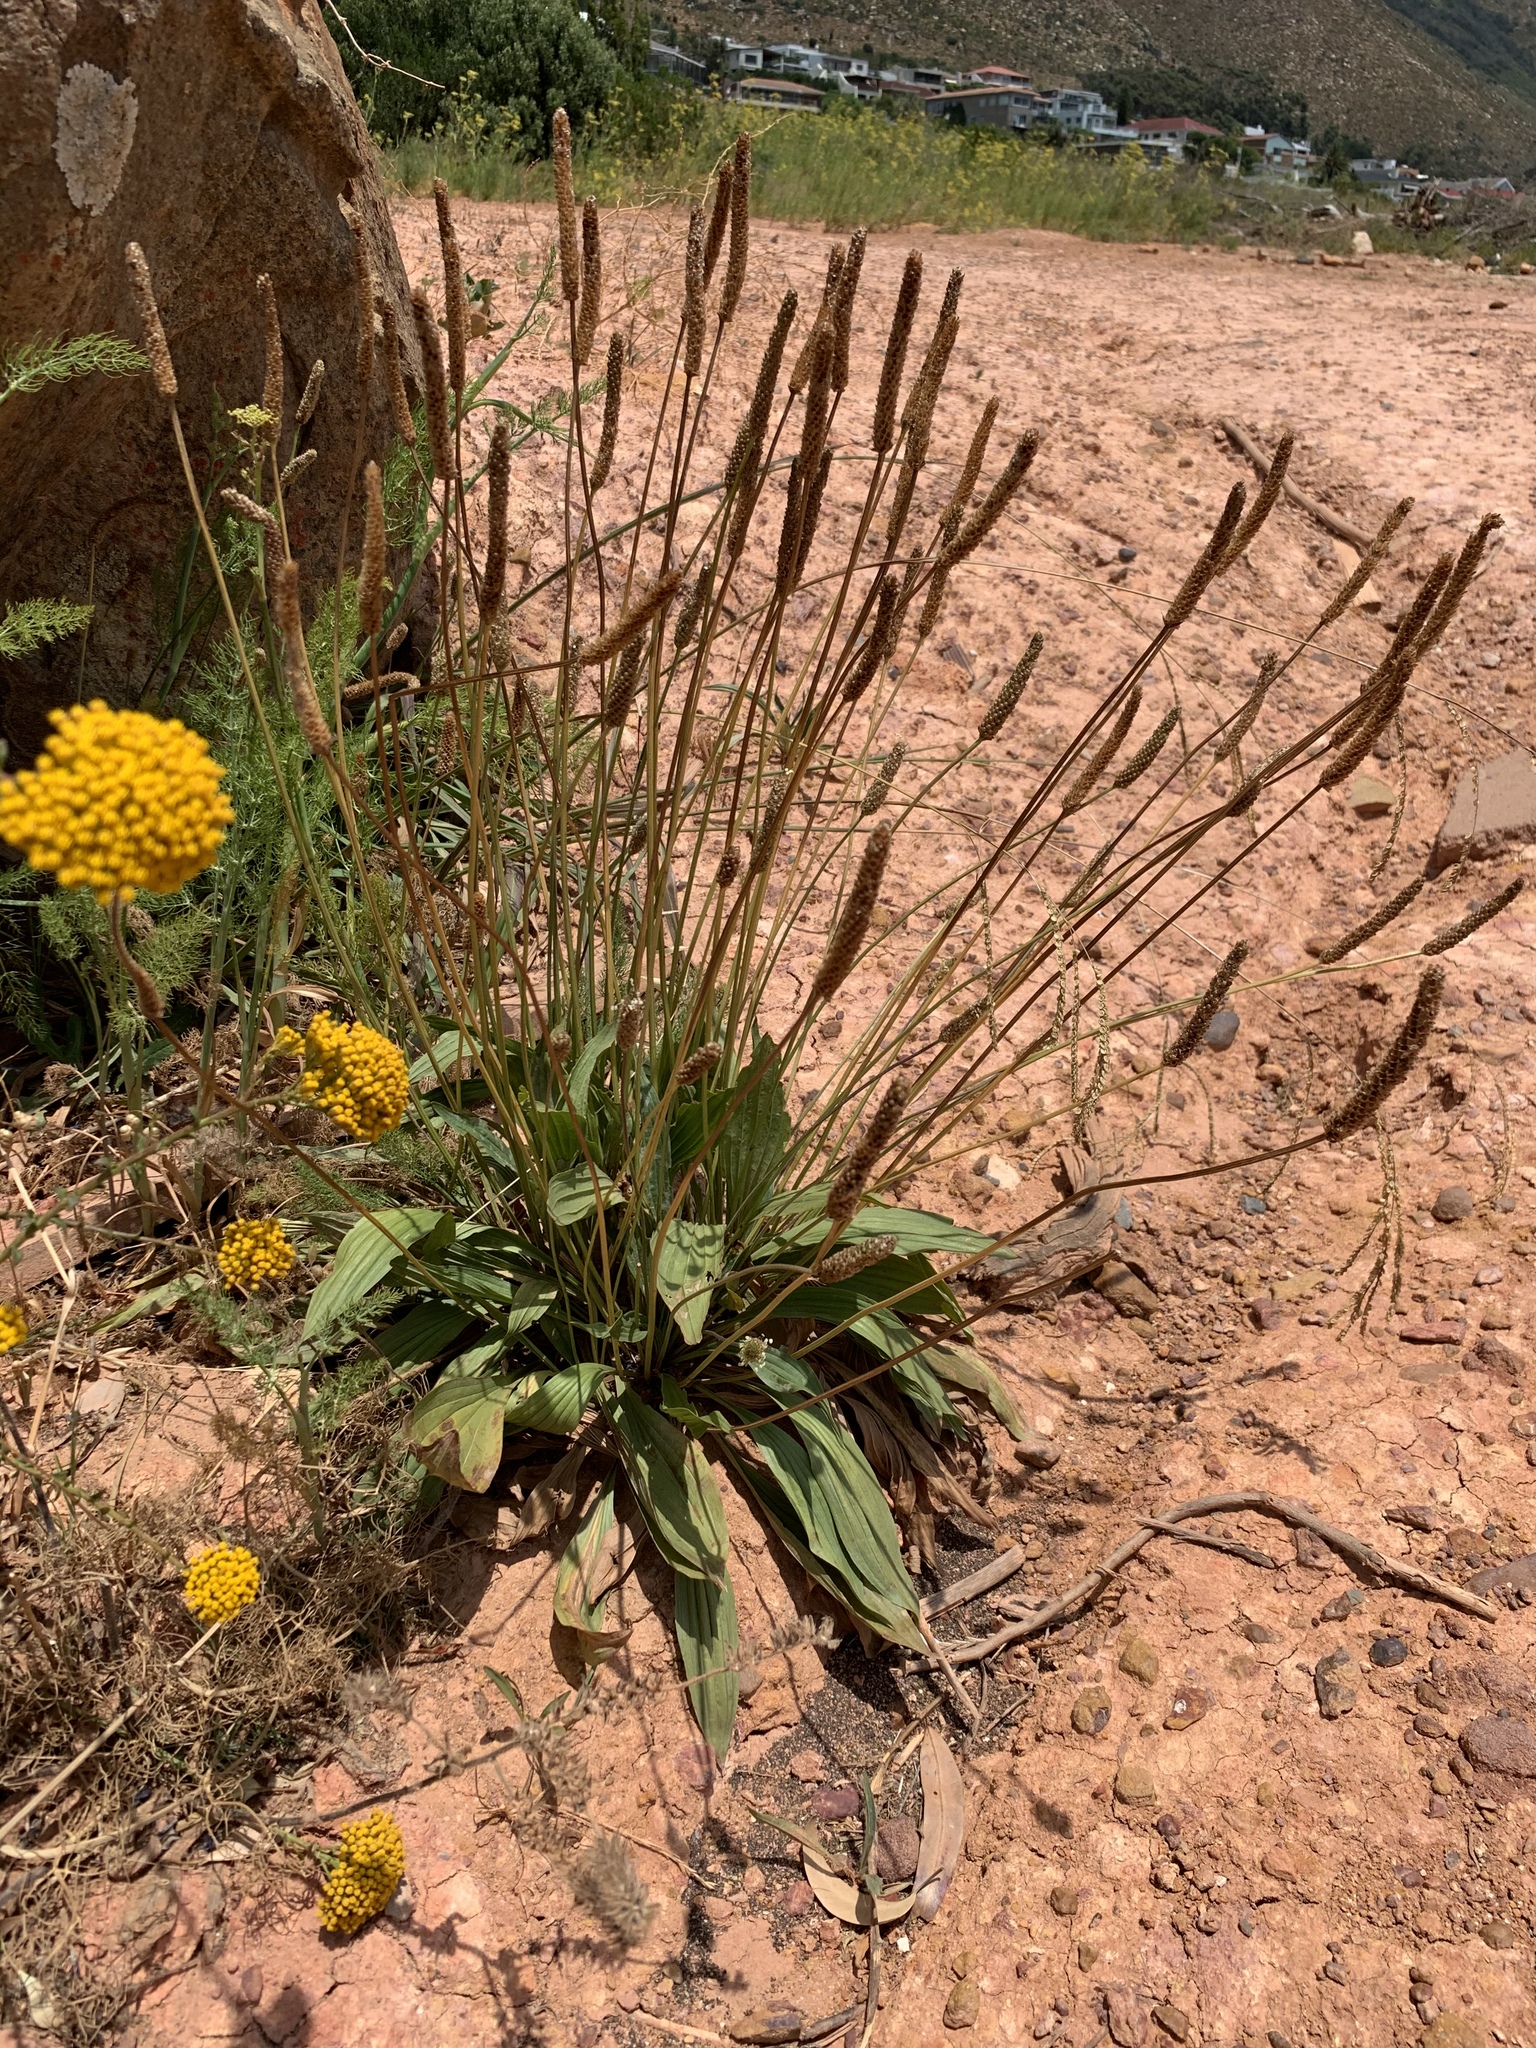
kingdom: Plantae
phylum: Tracheophyta
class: Magnoliopsida
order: Lamiales
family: Plantaginaceae
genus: Plantago
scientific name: Plantago lanceolata
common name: Ribwort plantain
